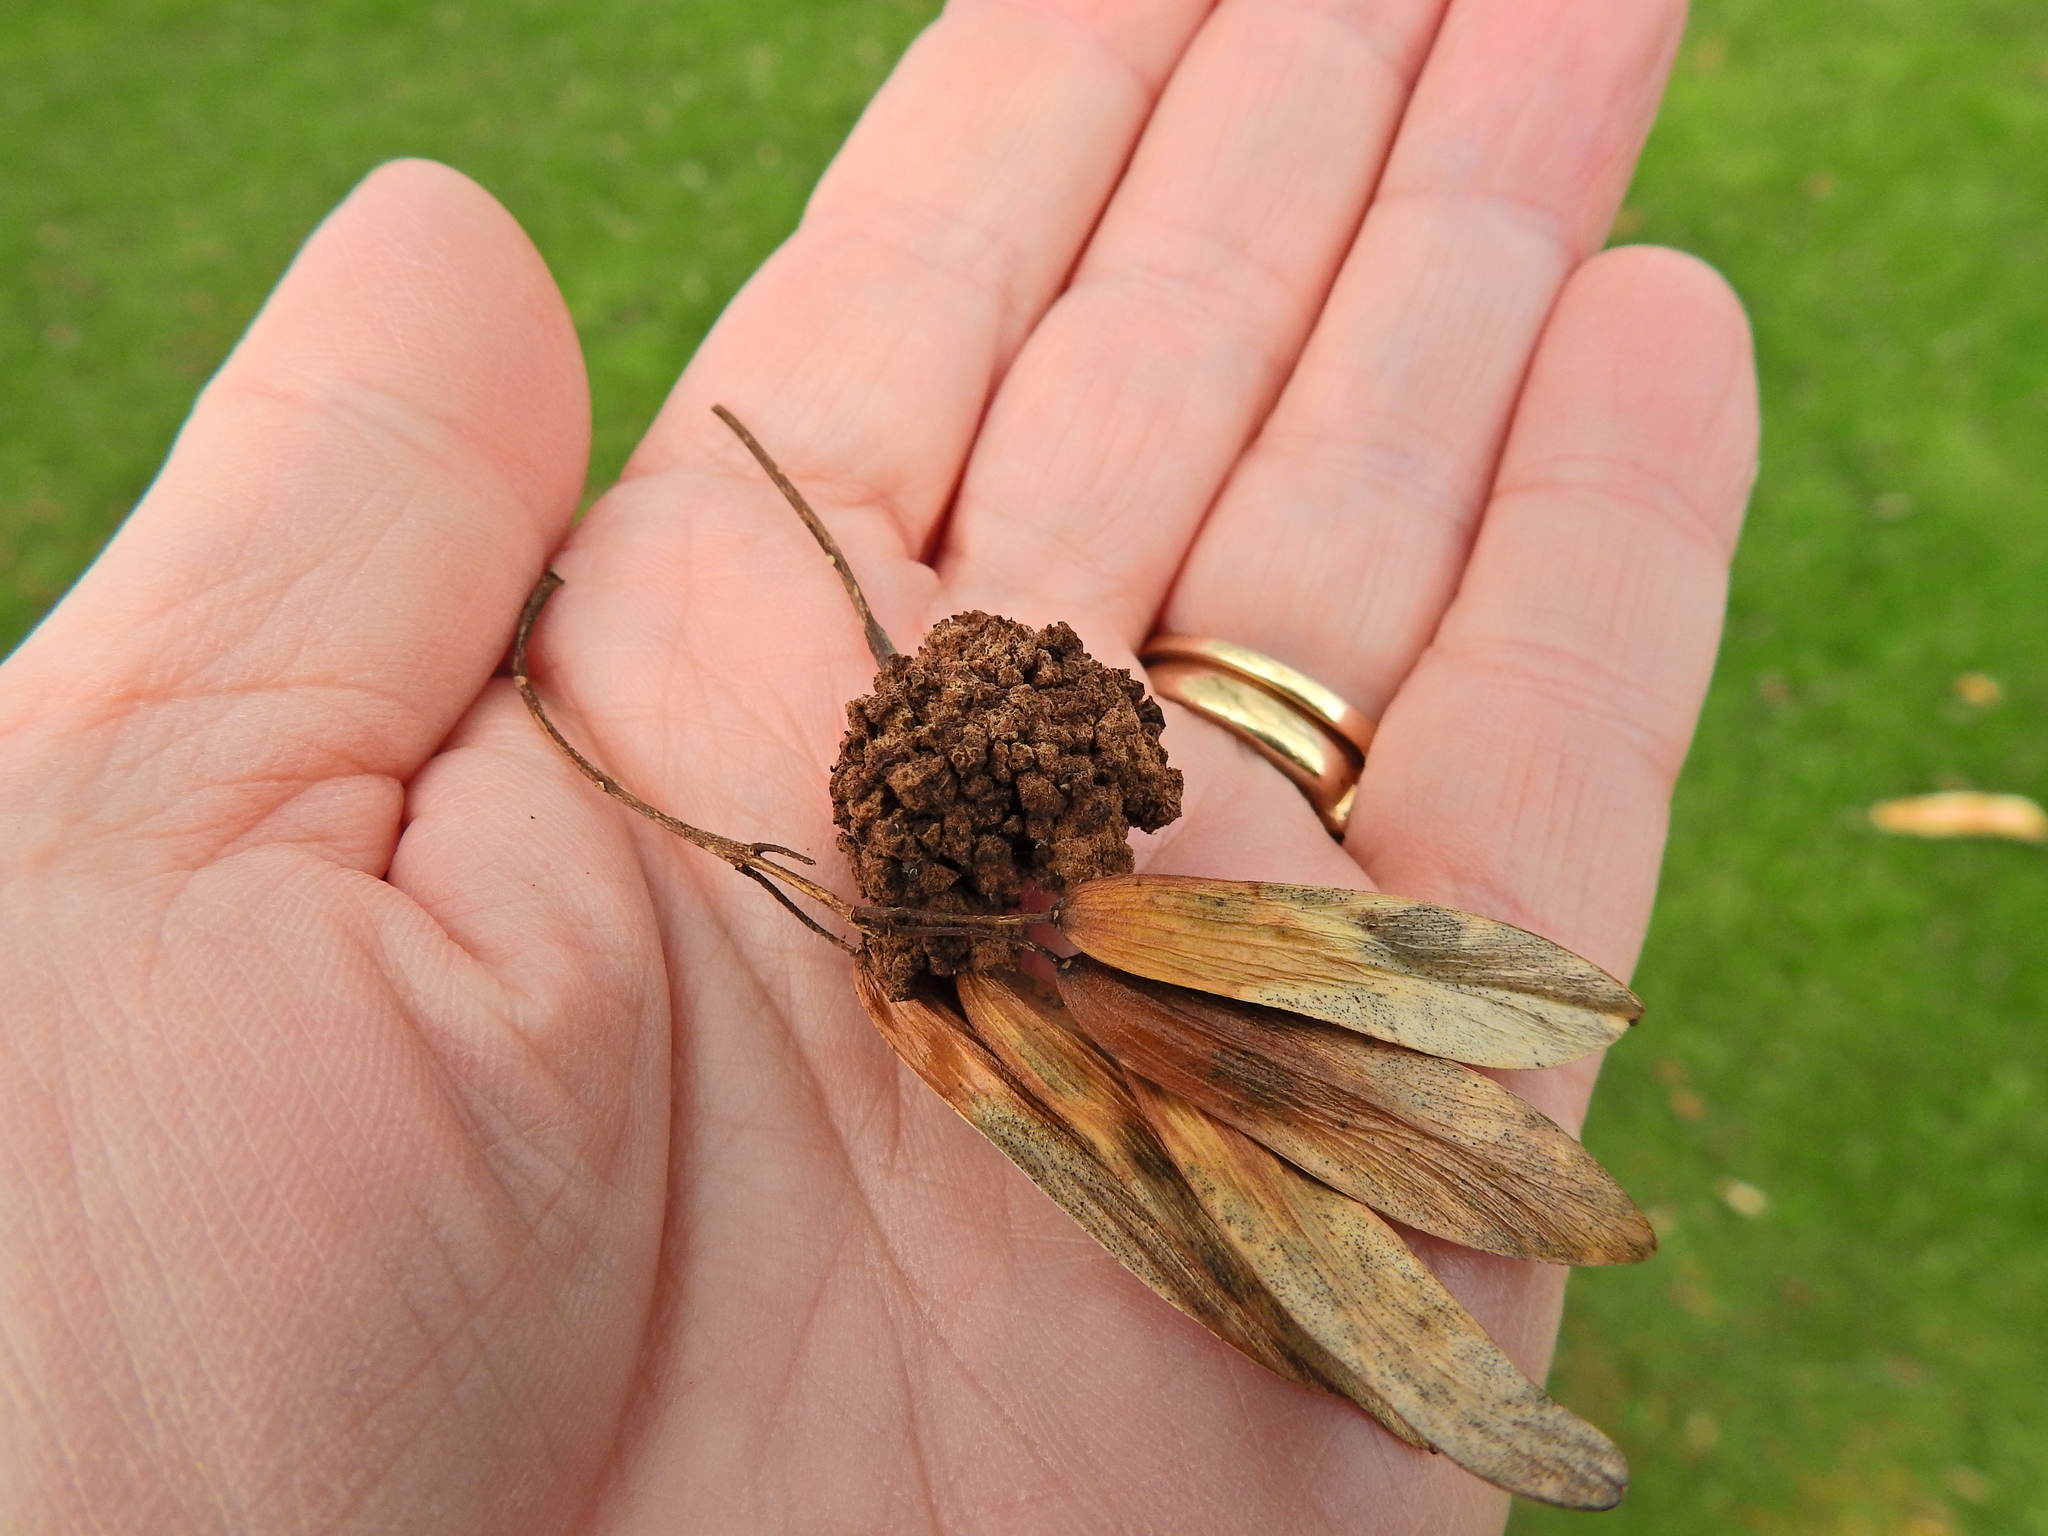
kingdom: Animalia
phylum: Arthropoda
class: Arachnida
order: Trombidiformes
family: Eriophyidae
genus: Aceria
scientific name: Aceria fraxinivora
